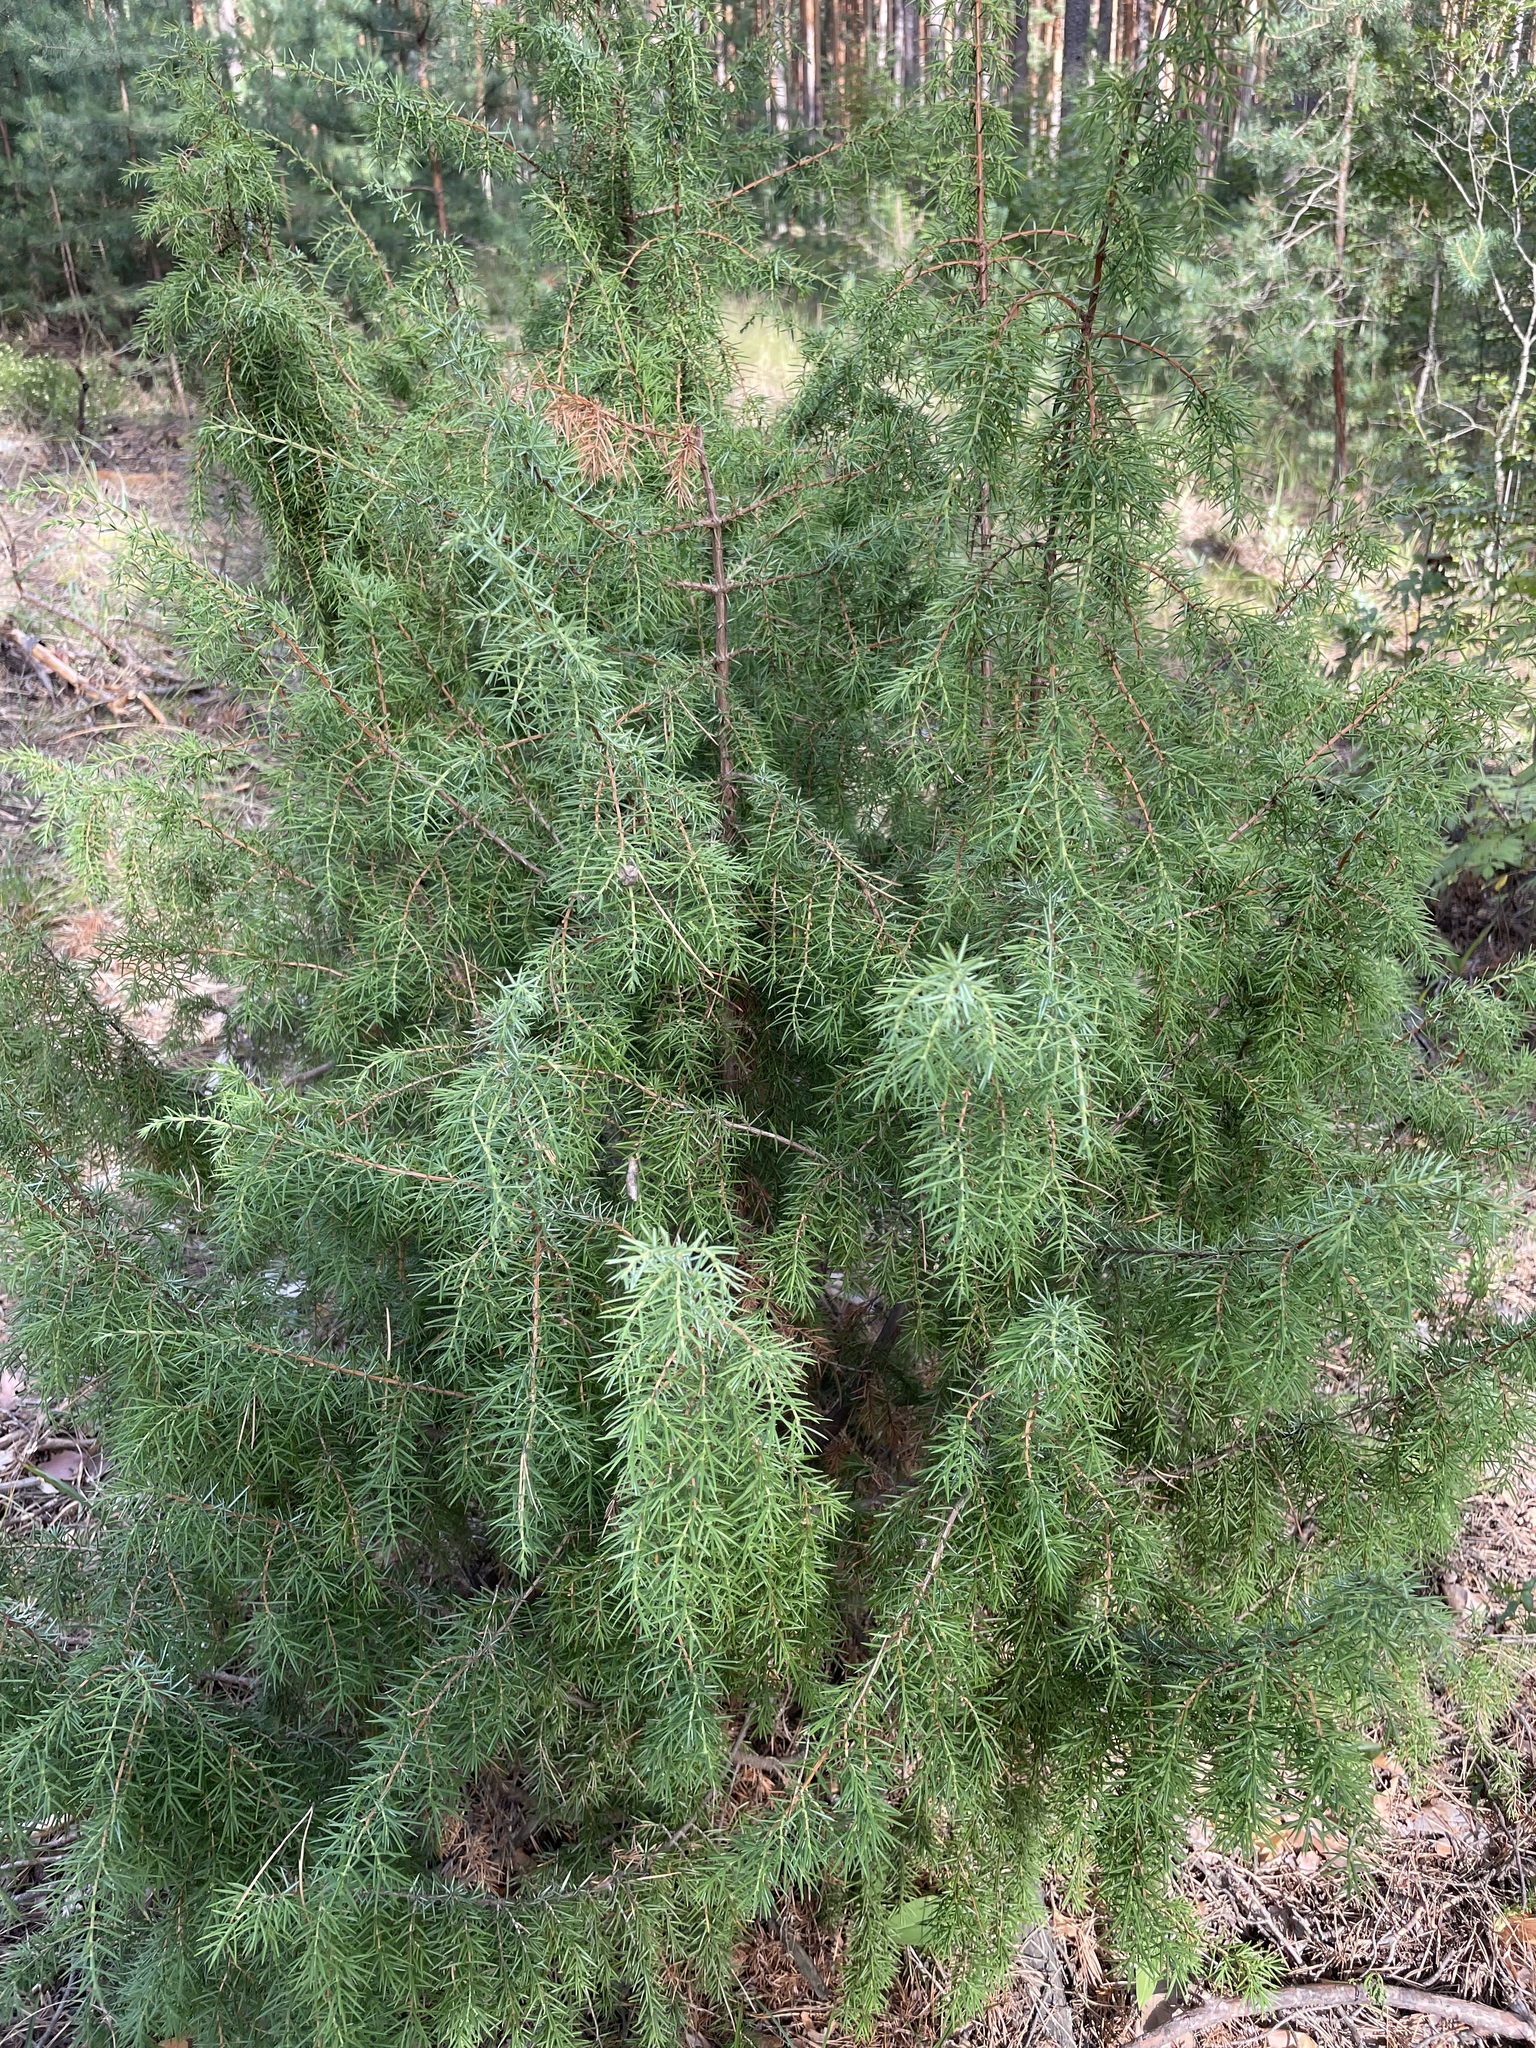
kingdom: Plantae
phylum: Tracheophyta
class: Pinopsida
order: Pinales
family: Cupressaceae
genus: Juniperus
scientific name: Juniperus communis
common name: Common juniper
